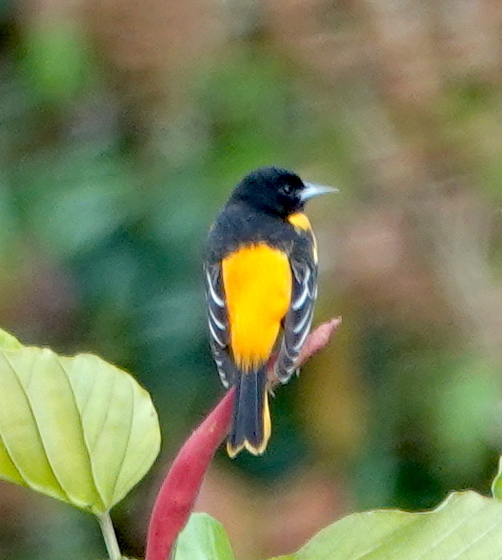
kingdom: Animalia
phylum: Chordata
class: Aves
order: Passeriformes
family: Icteridae
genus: Icterus
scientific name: Icterus galbula
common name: Baltimore oriole
